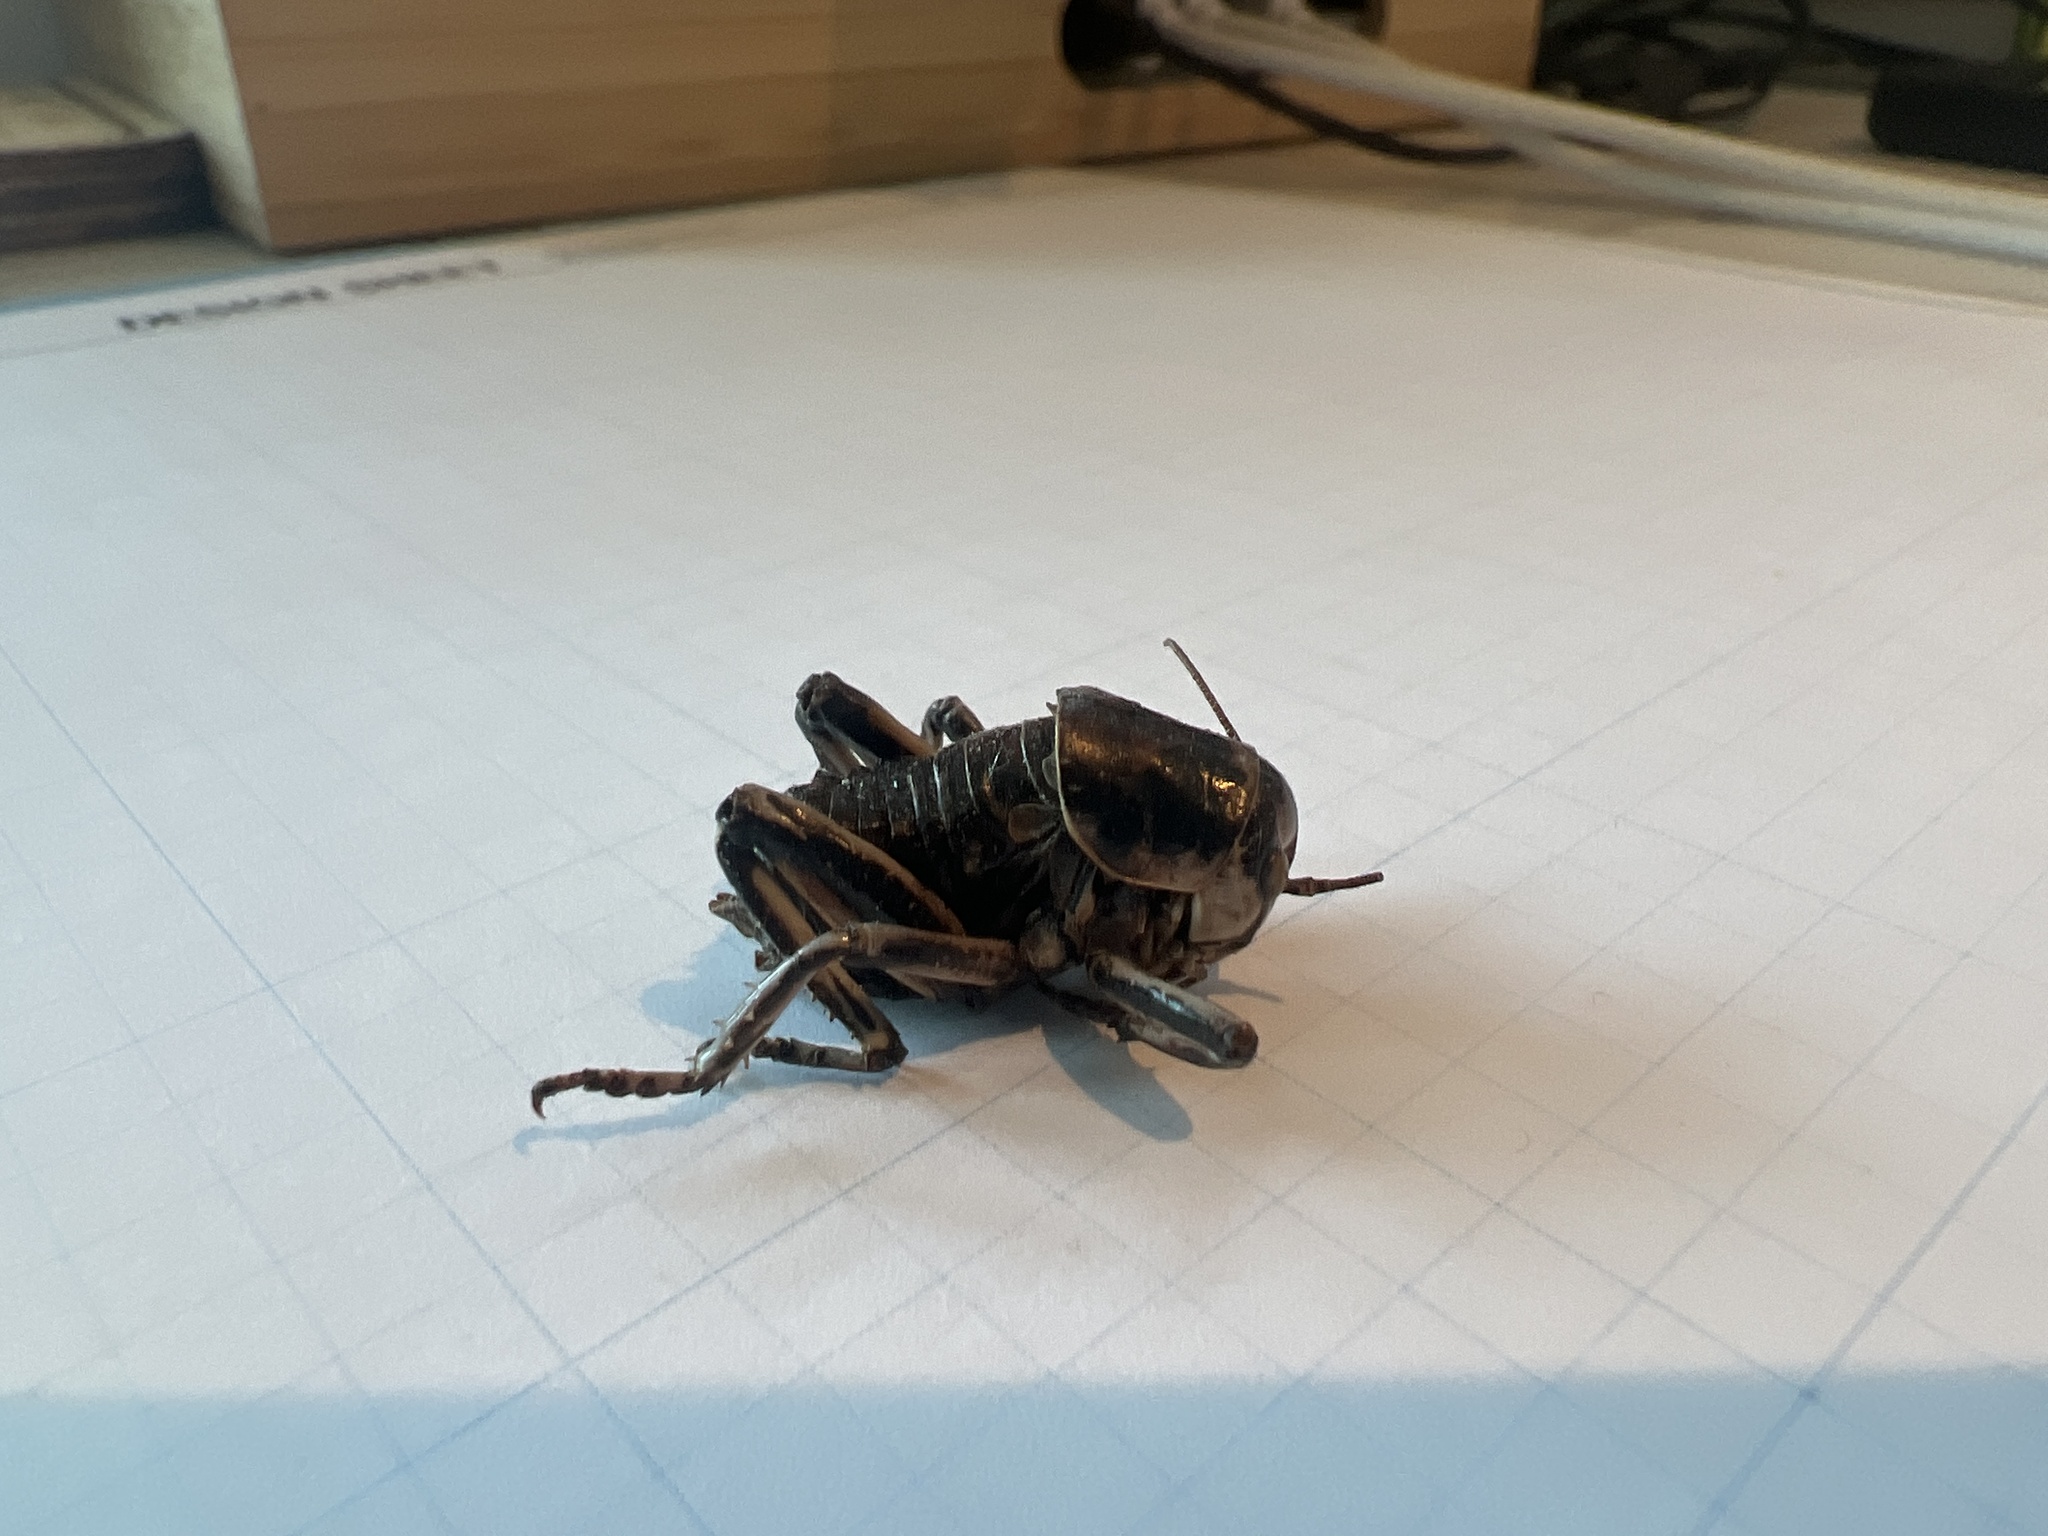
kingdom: Animalia
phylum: Arthropoda
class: Insecta
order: Orthoptera
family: Prophalangopsidae
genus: Cyphoderris
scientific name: Cyphoderris monstrosa
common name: Great grig
